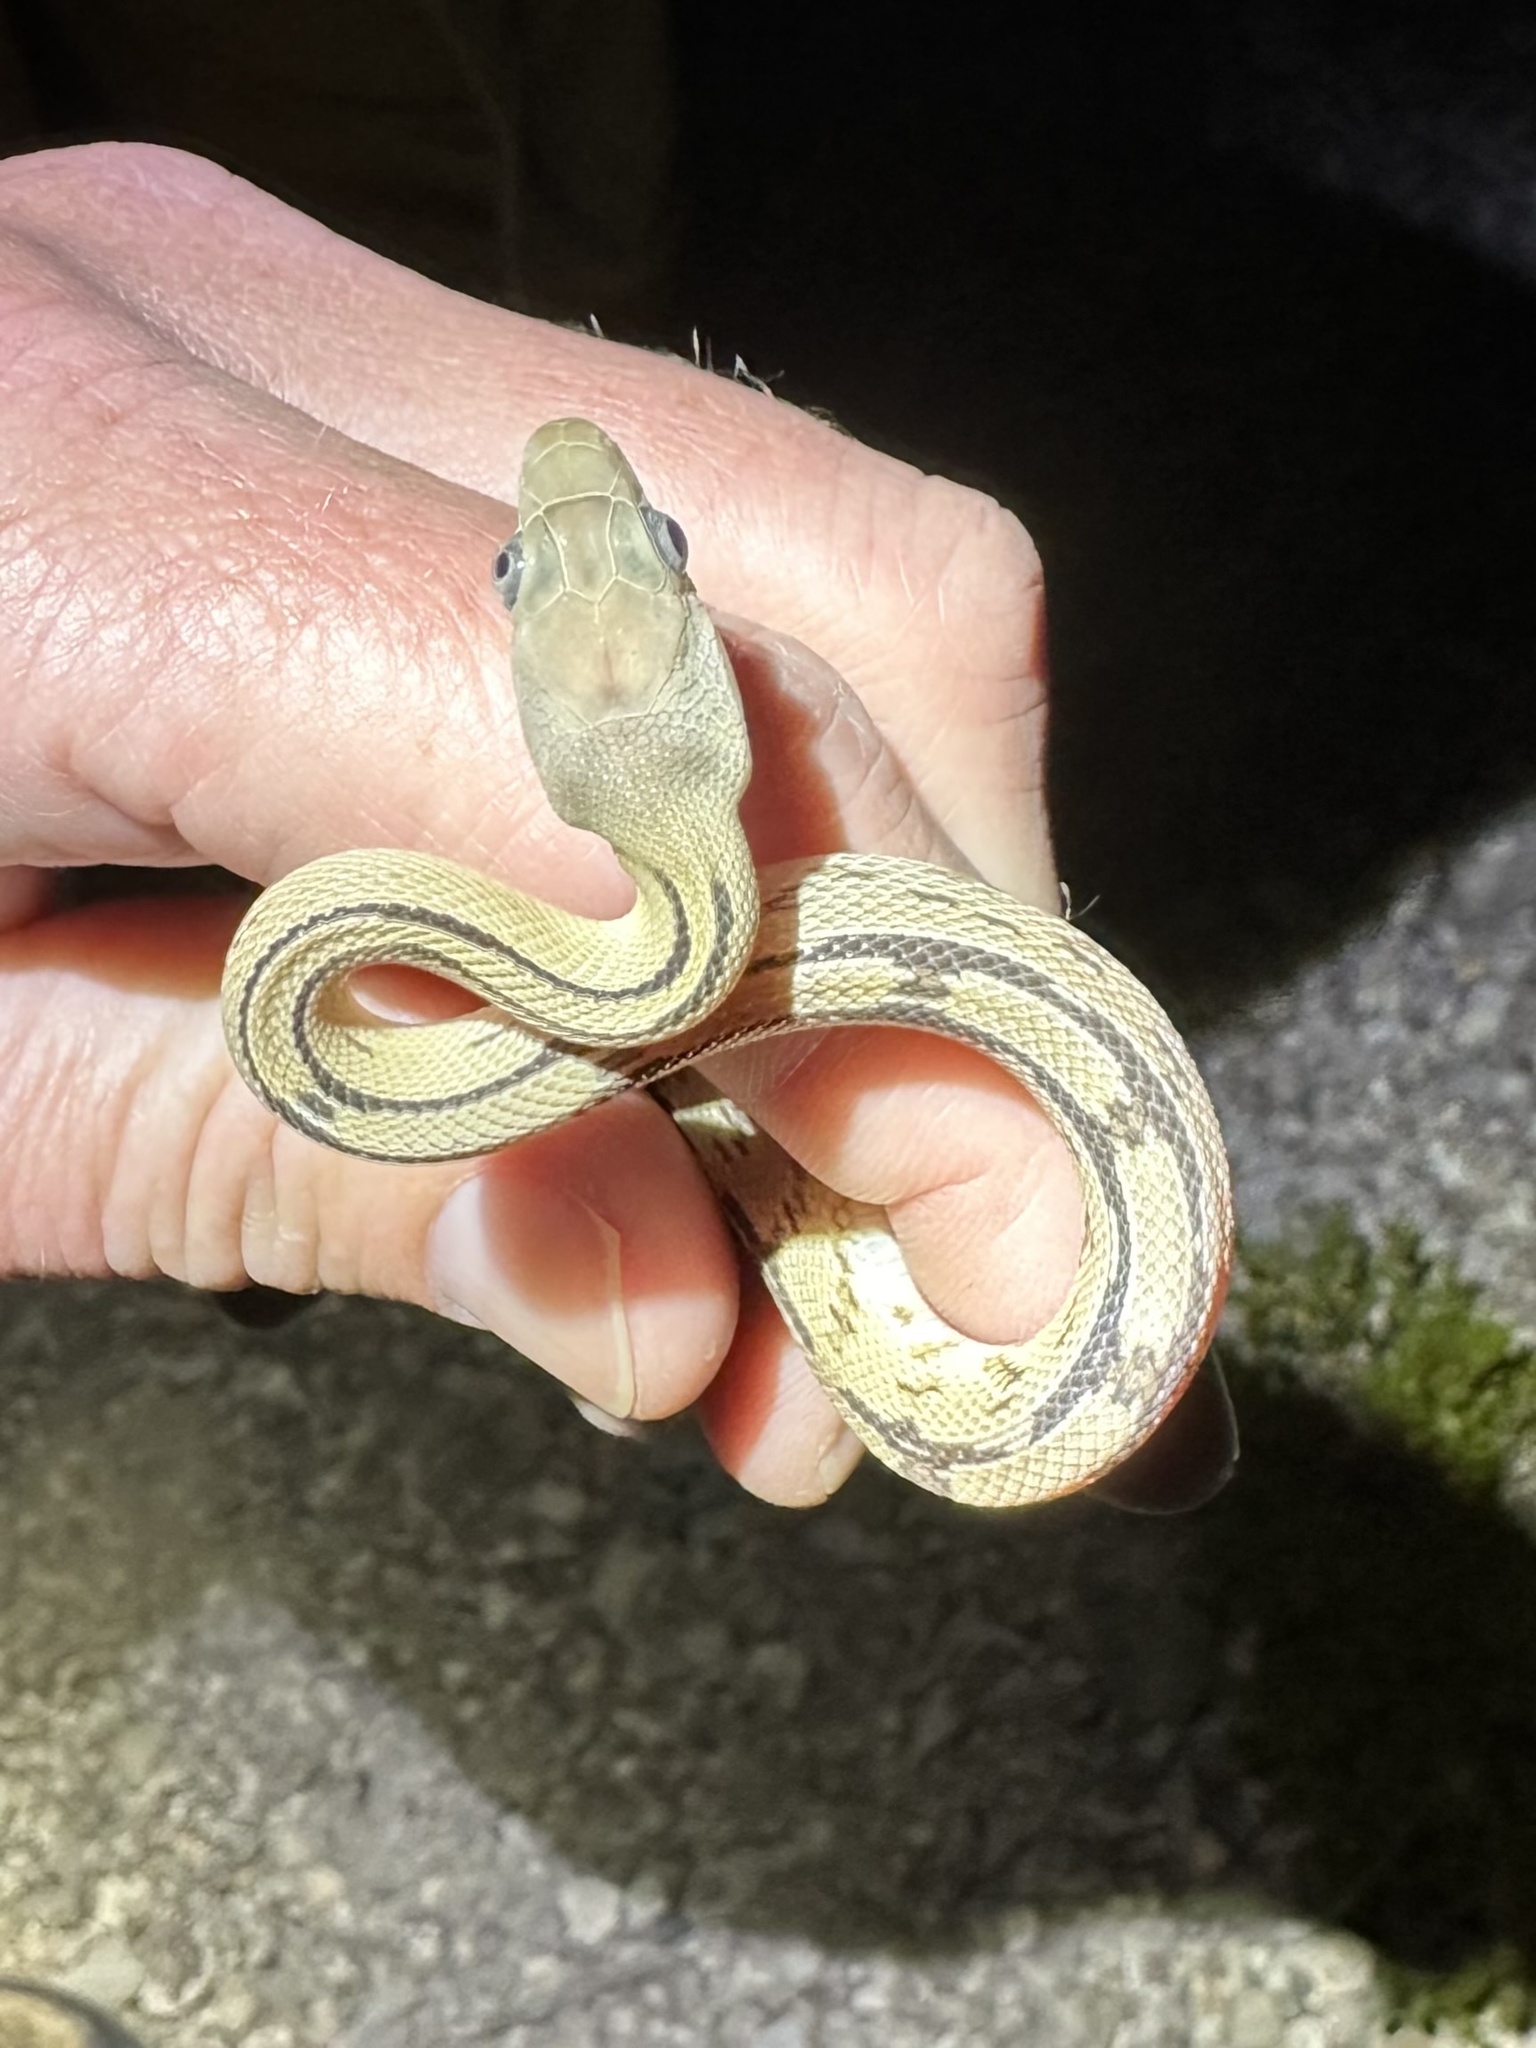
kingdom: Animalia
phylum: Chordata
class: Squamata
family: Colubridae
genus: Bogertophis
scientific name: Bogertophis subocularis
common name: Trans-pecos rat snake
